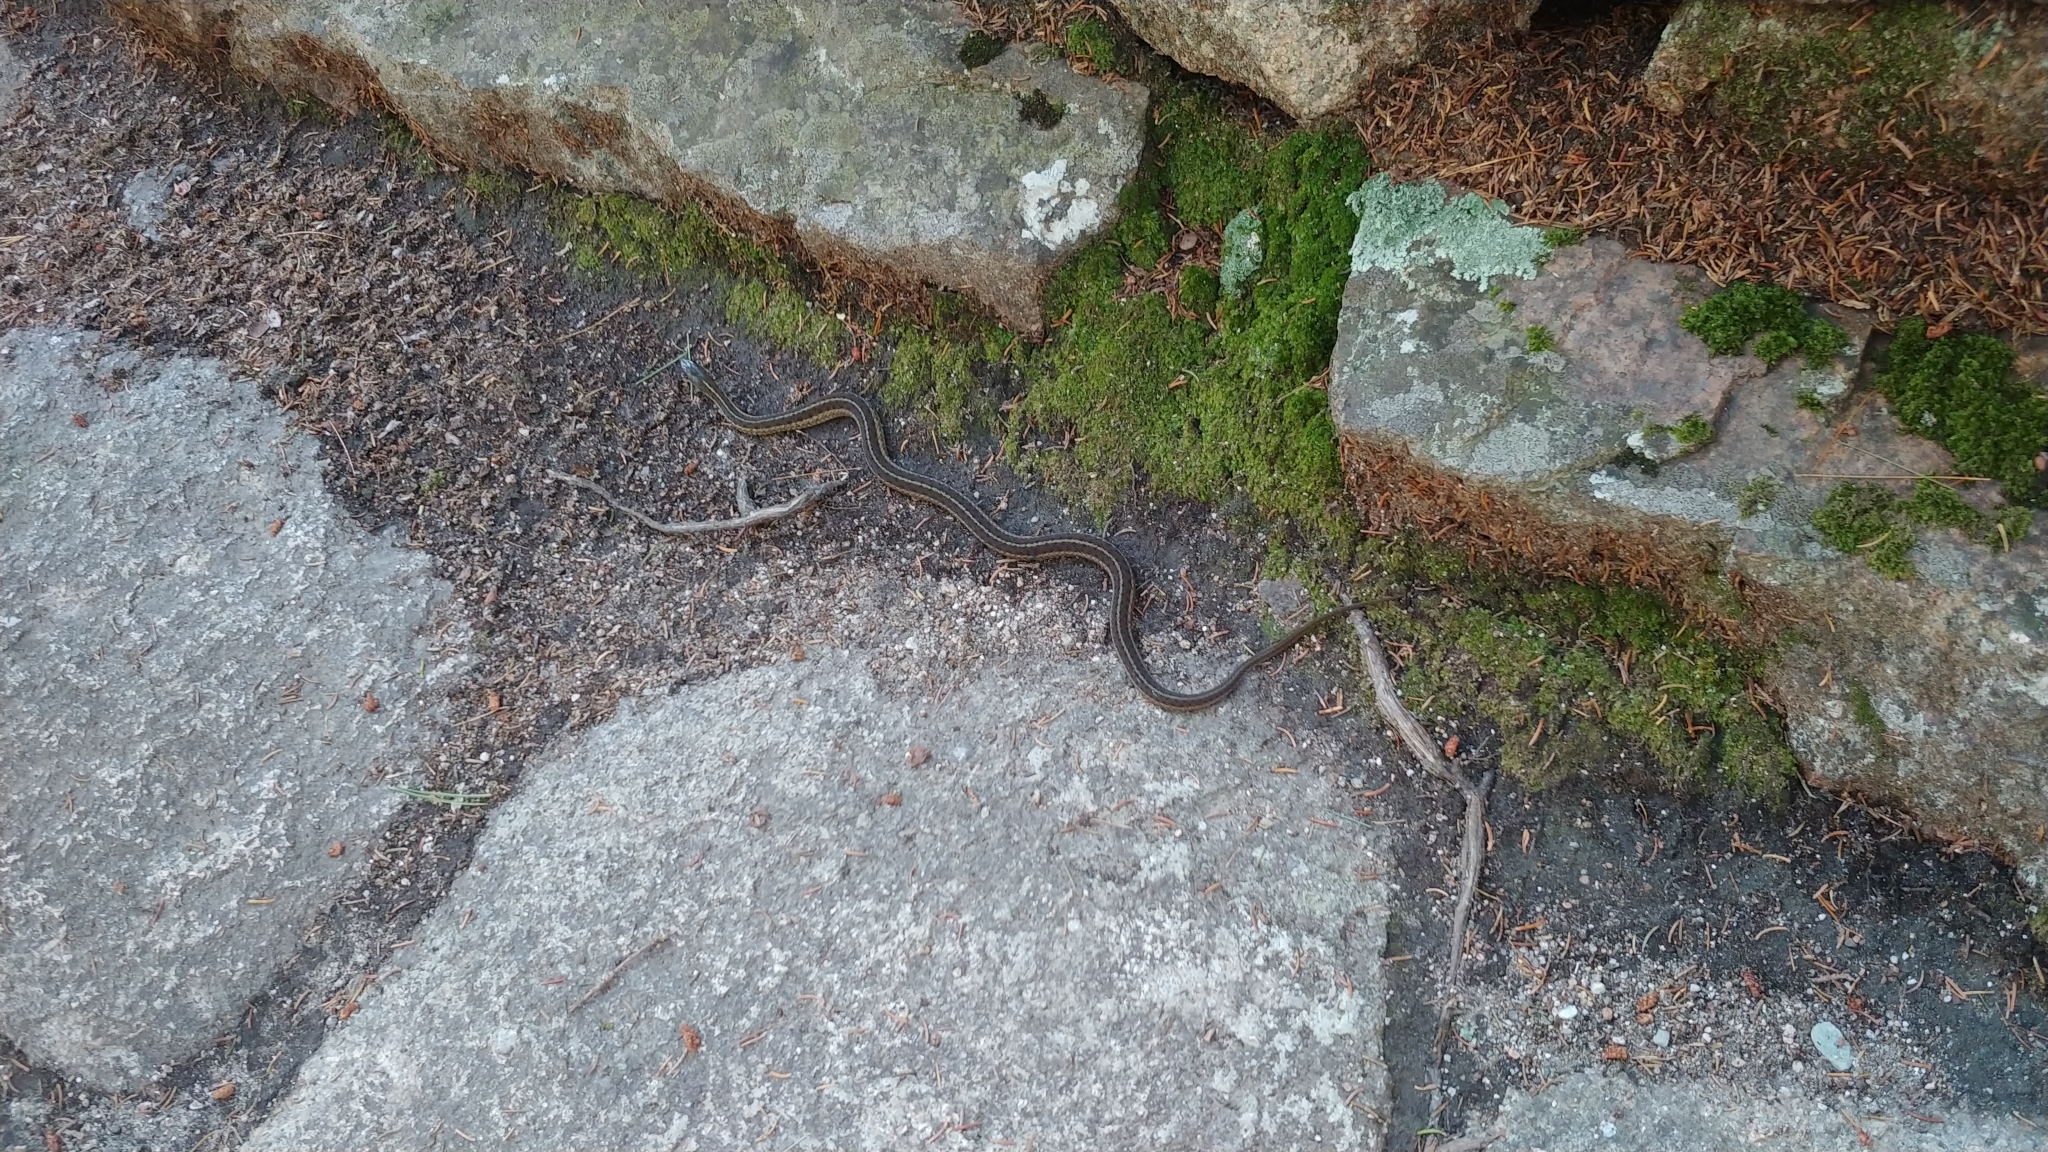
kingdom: Animalia
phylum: Chordata
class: Squamata
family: Colubridae
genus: Thamnophis
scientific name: Thamnophis sirtalis
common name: Common garter snake
